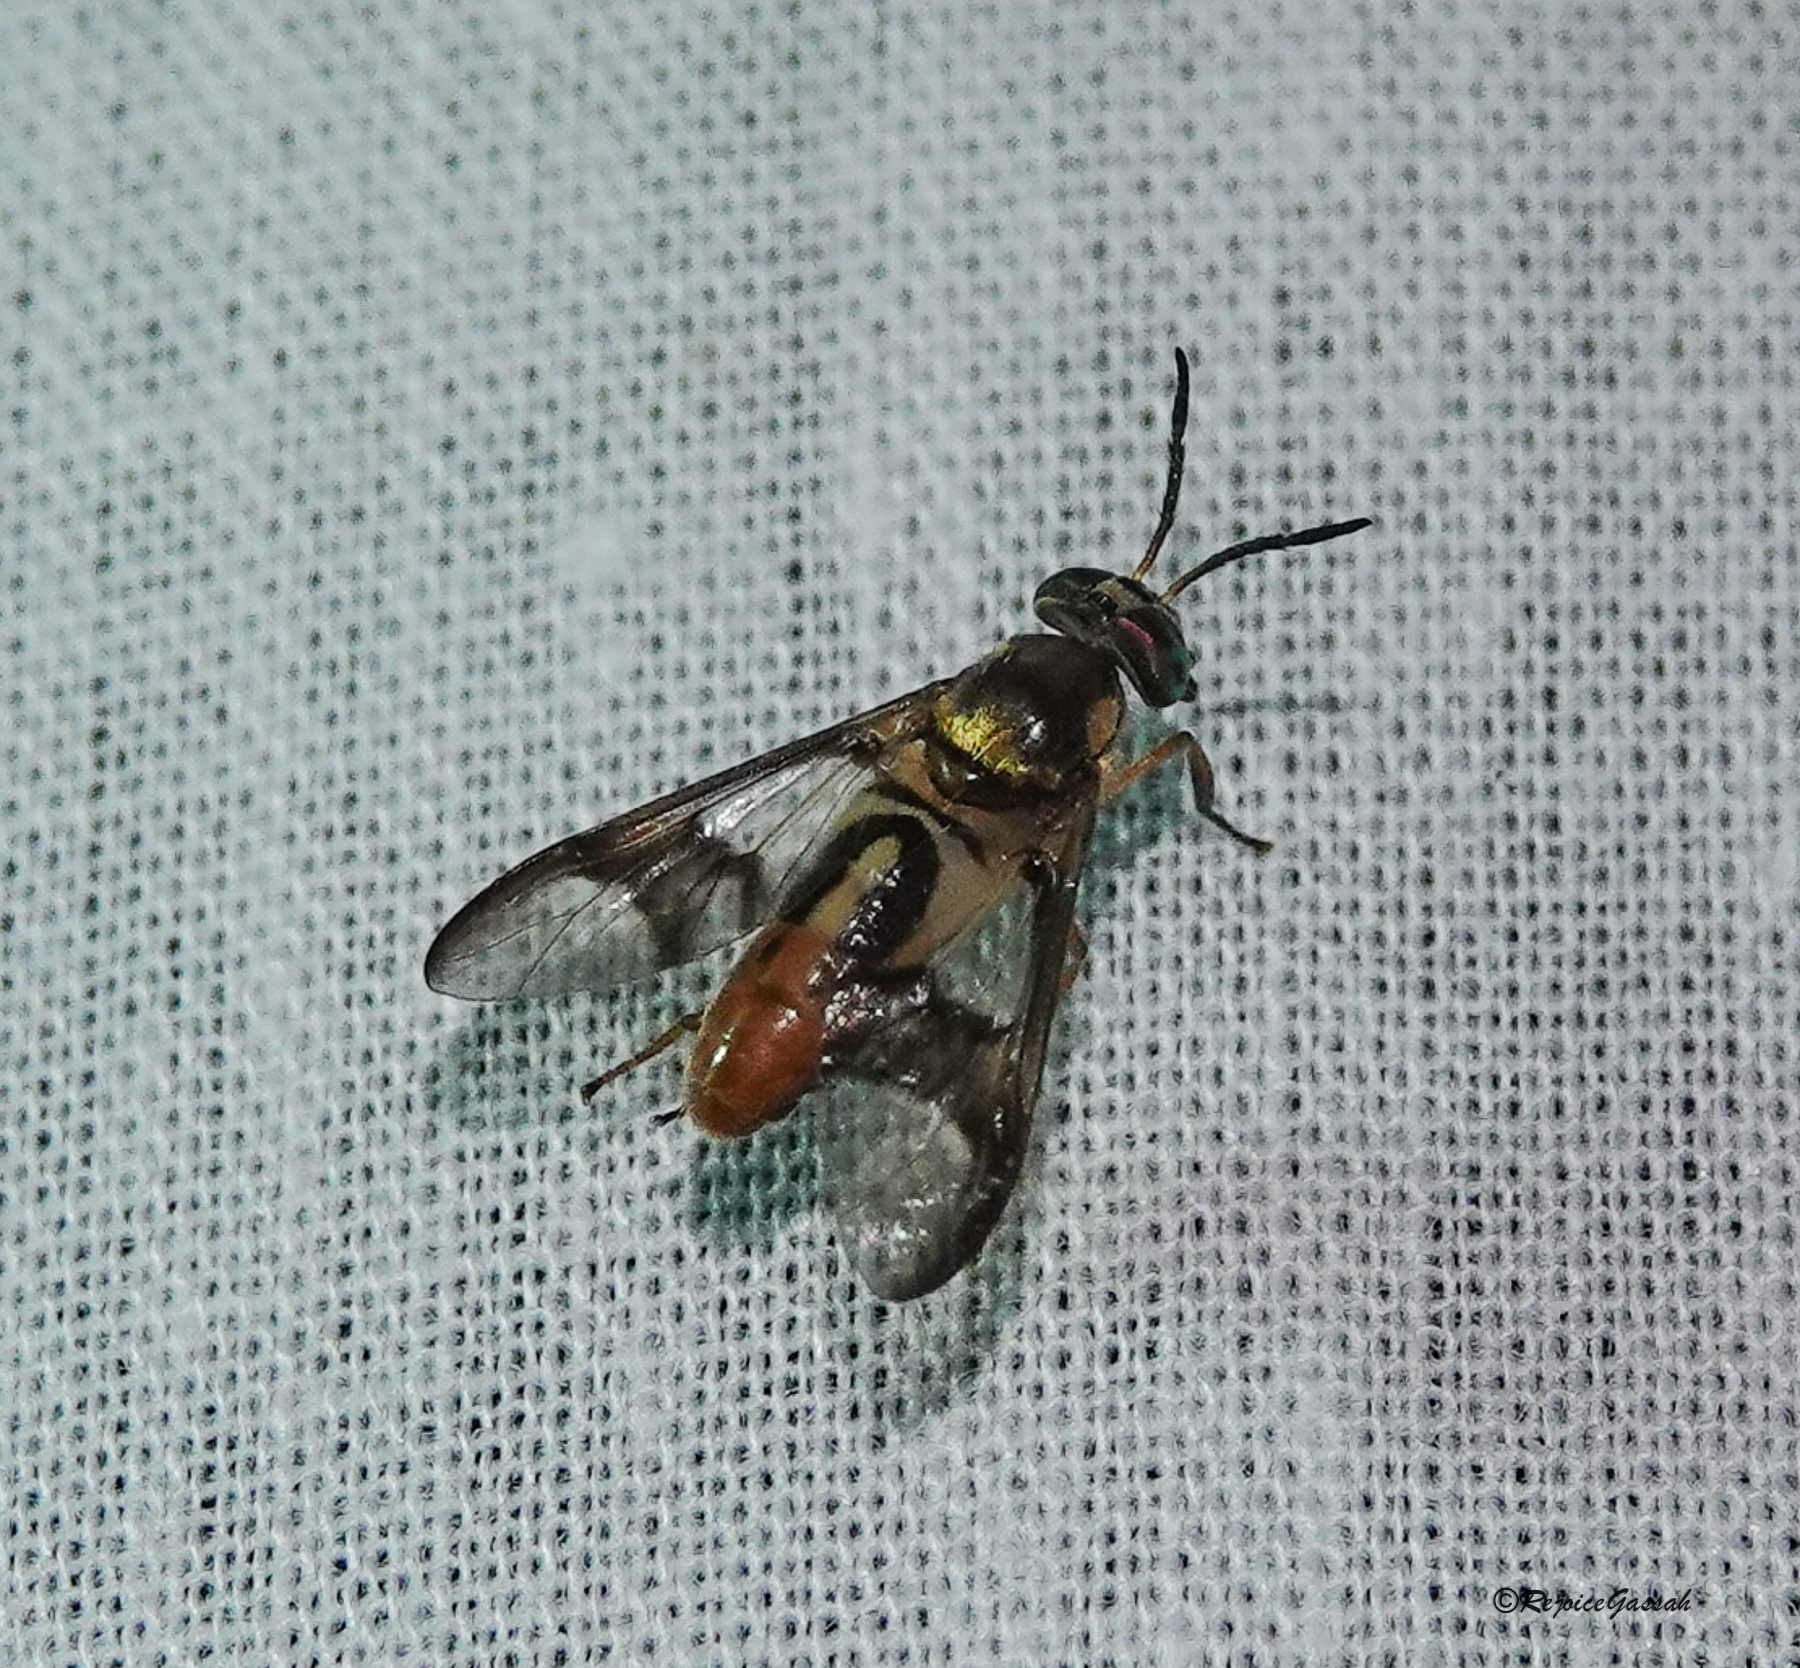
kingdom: Animalia
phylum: Arthropoda
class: Insecta
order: Diptera
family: Tabanidae
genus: Chrysops
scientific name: Chrysops dispar
